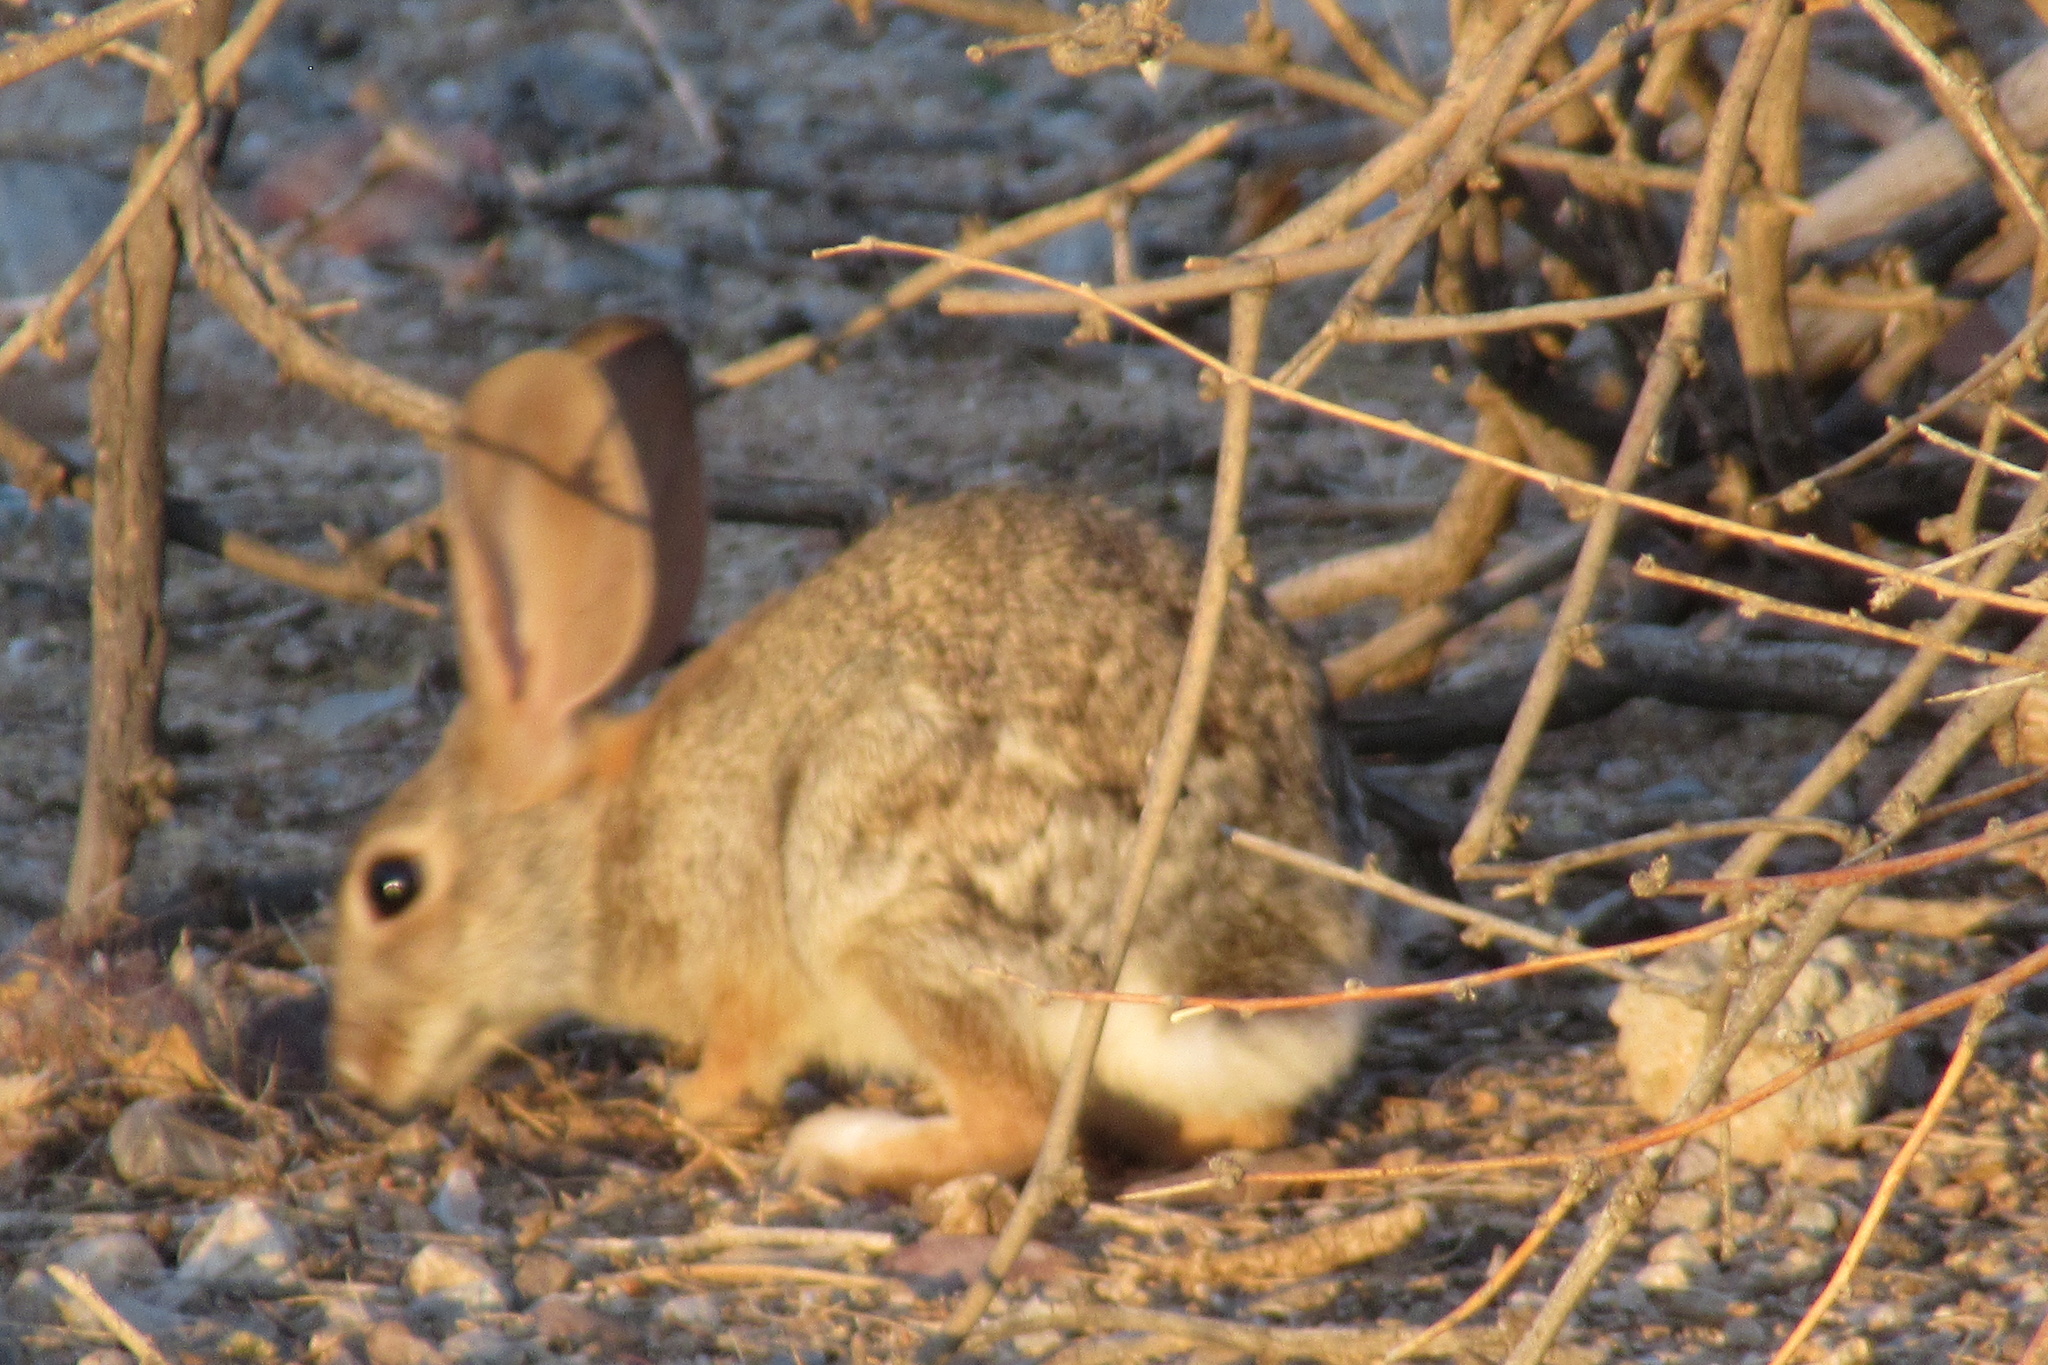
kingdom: Animalia
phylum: Chordata
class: Mammalia
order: Lagomorpha
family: Leporidae
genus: Sylvilagus
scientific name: Sylvilagus audubonii
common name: Desert cottontail
